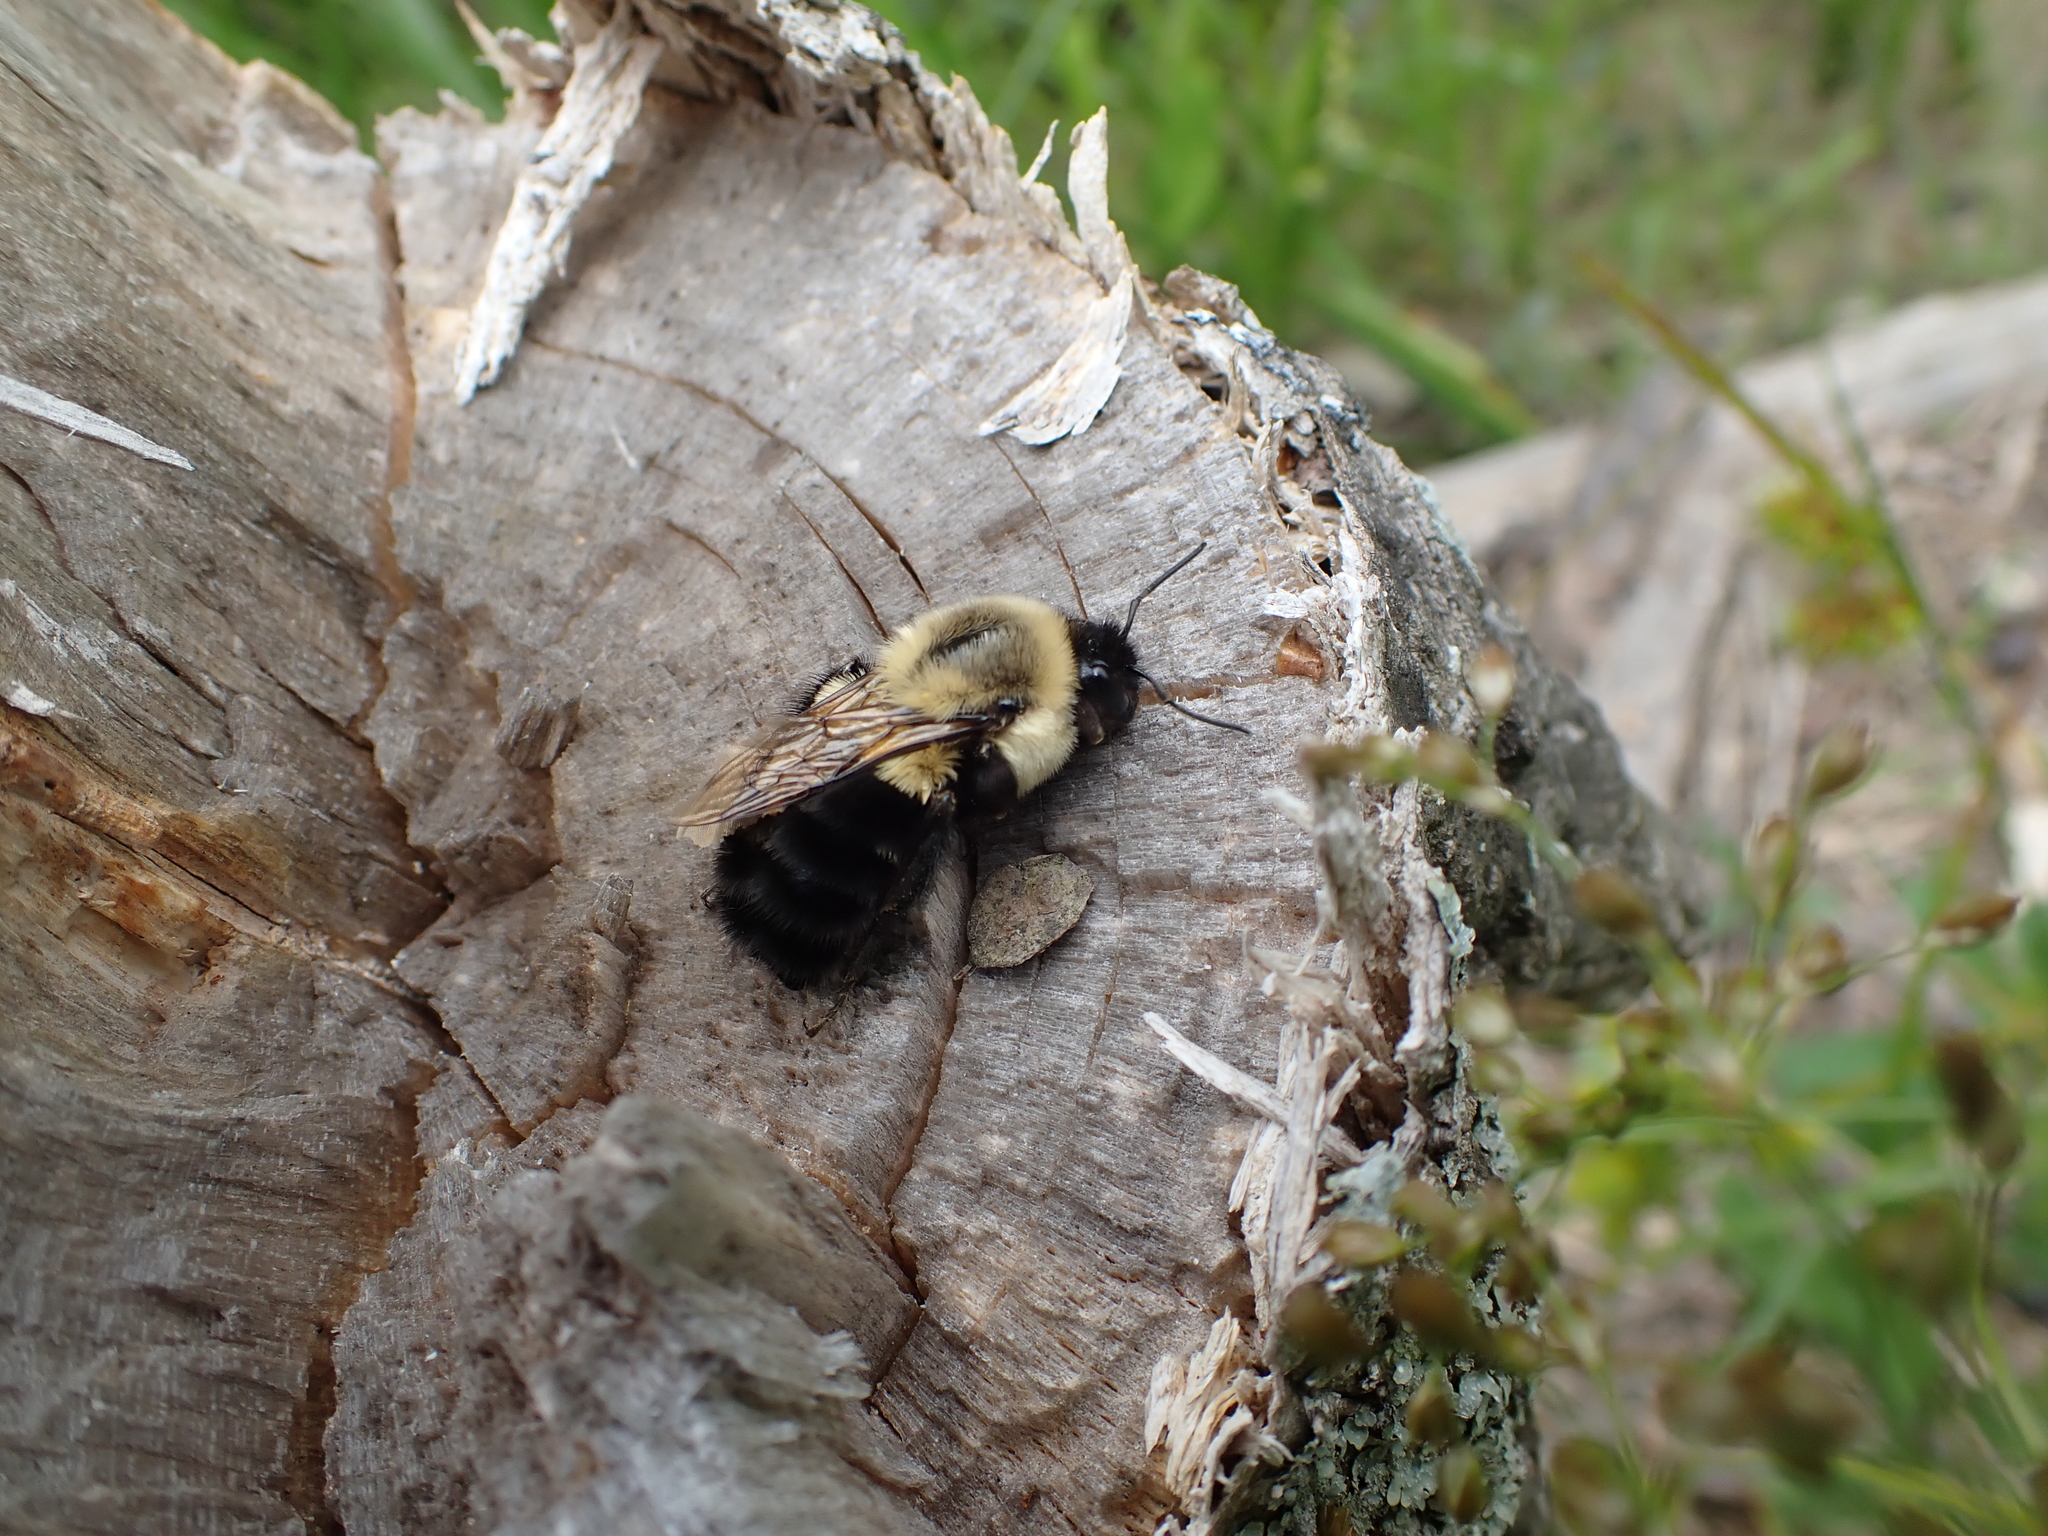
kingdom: Animalia
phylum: Arthropoda
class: Insecta
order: Hymenoptera
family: Apidae
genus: Bombus
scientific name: Bombus impatiens
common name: Common eastern bumble bee
